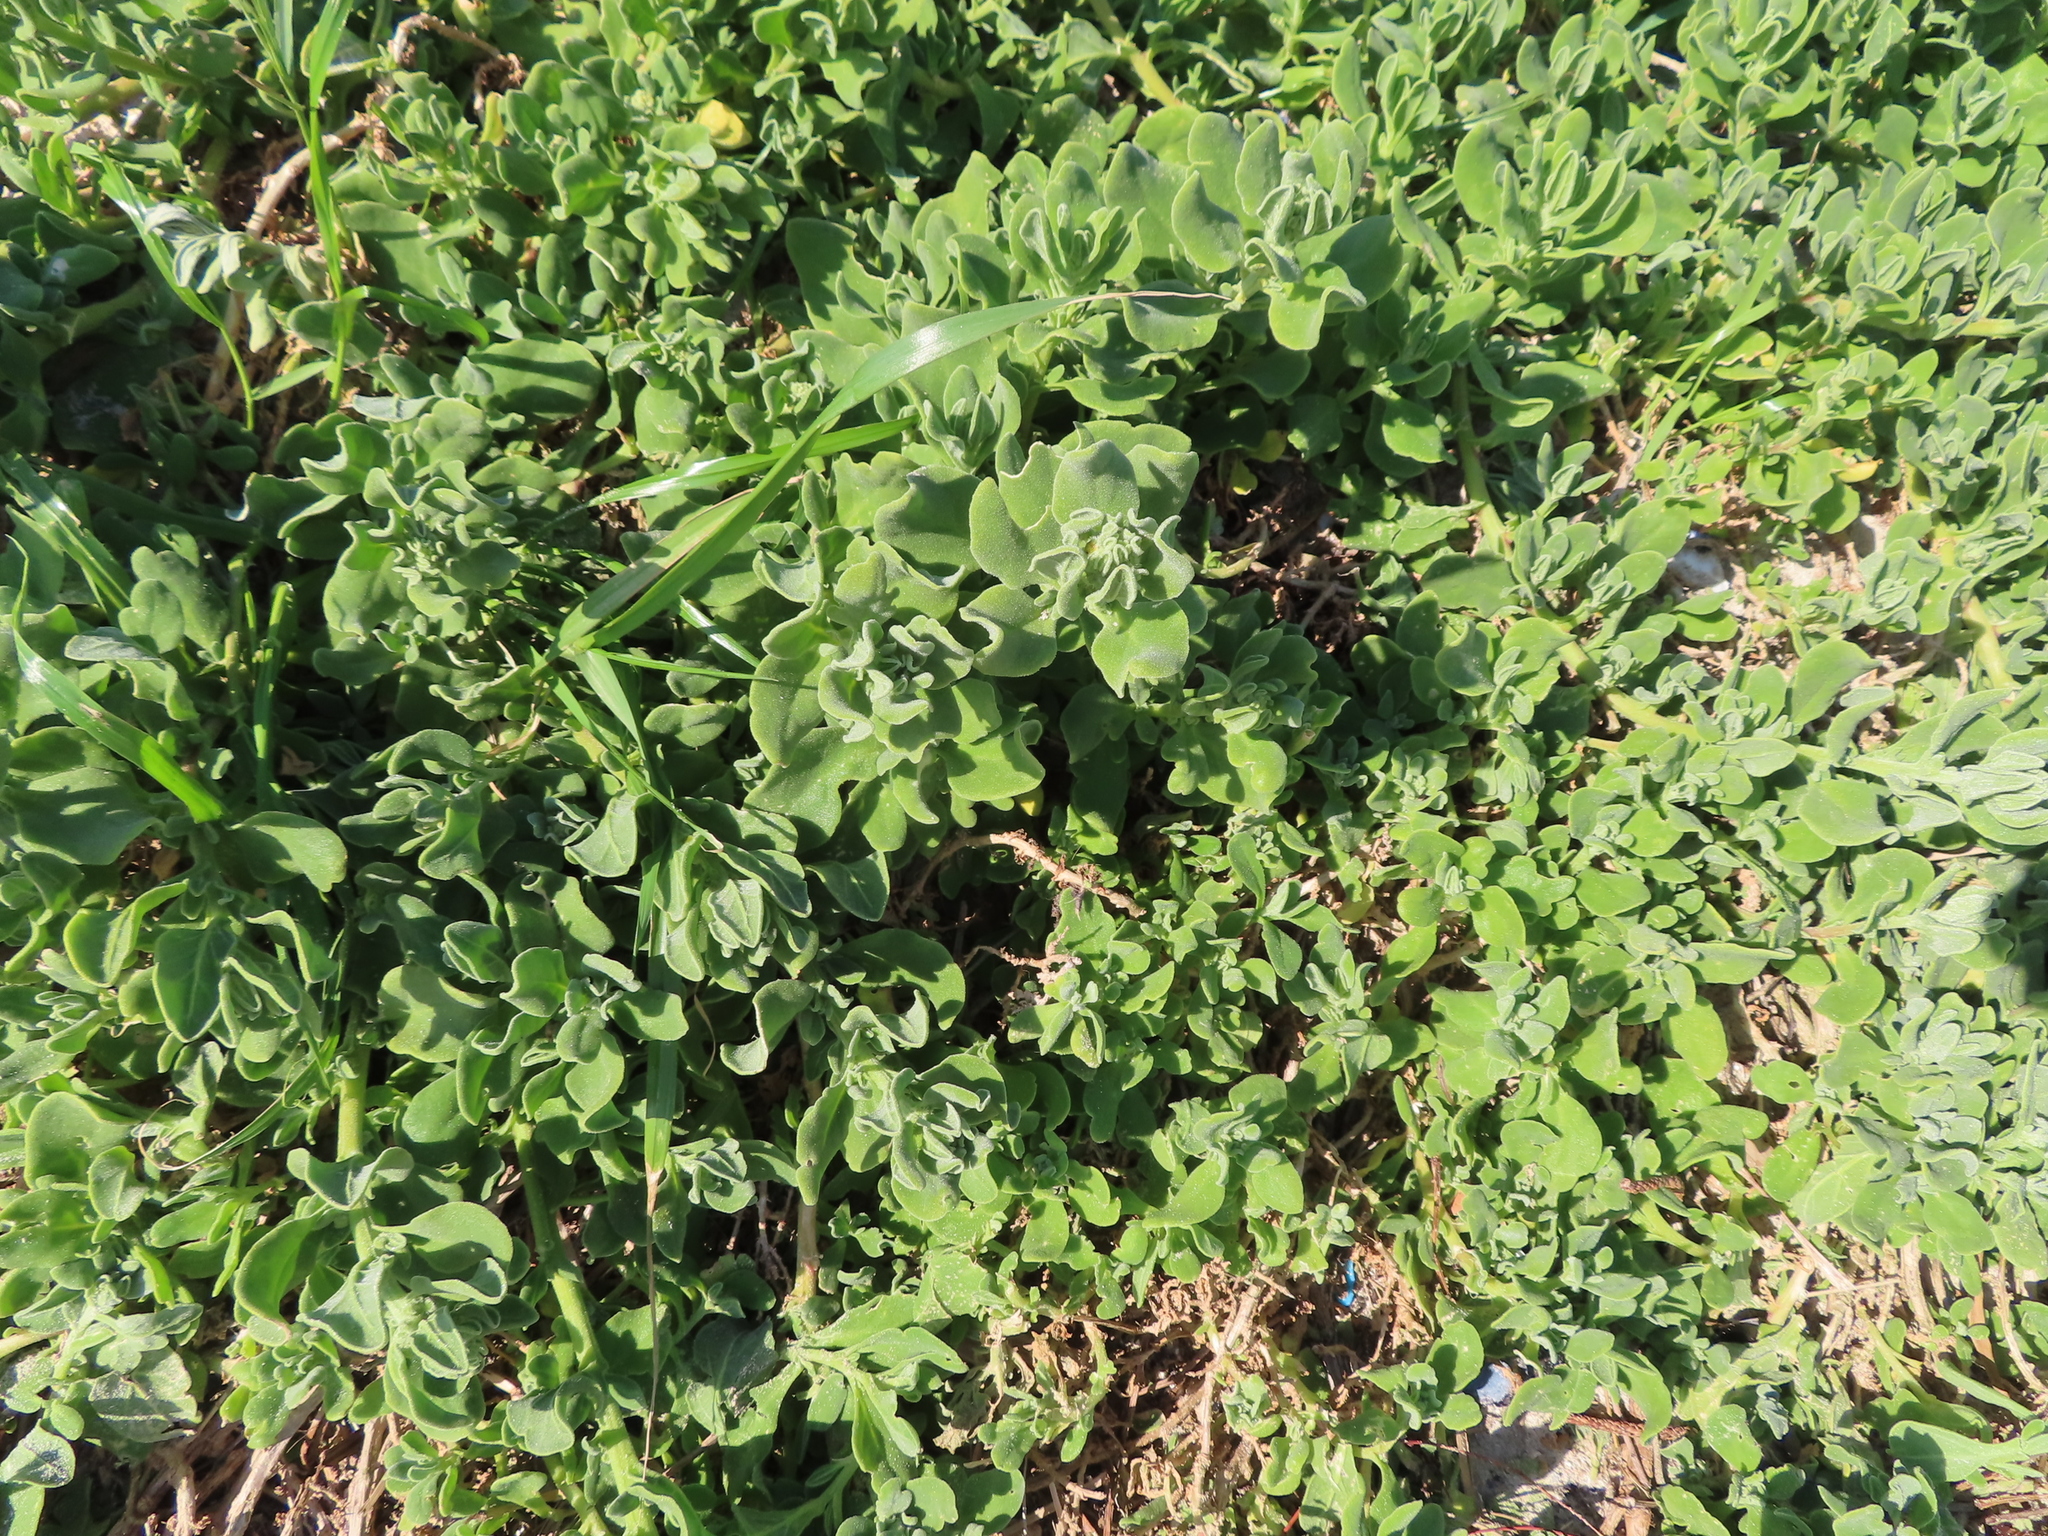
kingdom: Plantae
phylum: Tracheophyta
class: Magnoliopsida
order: Caryophyllales
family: Aizoaceae
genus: Tetragonia
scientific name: Tetragonia decumbens
